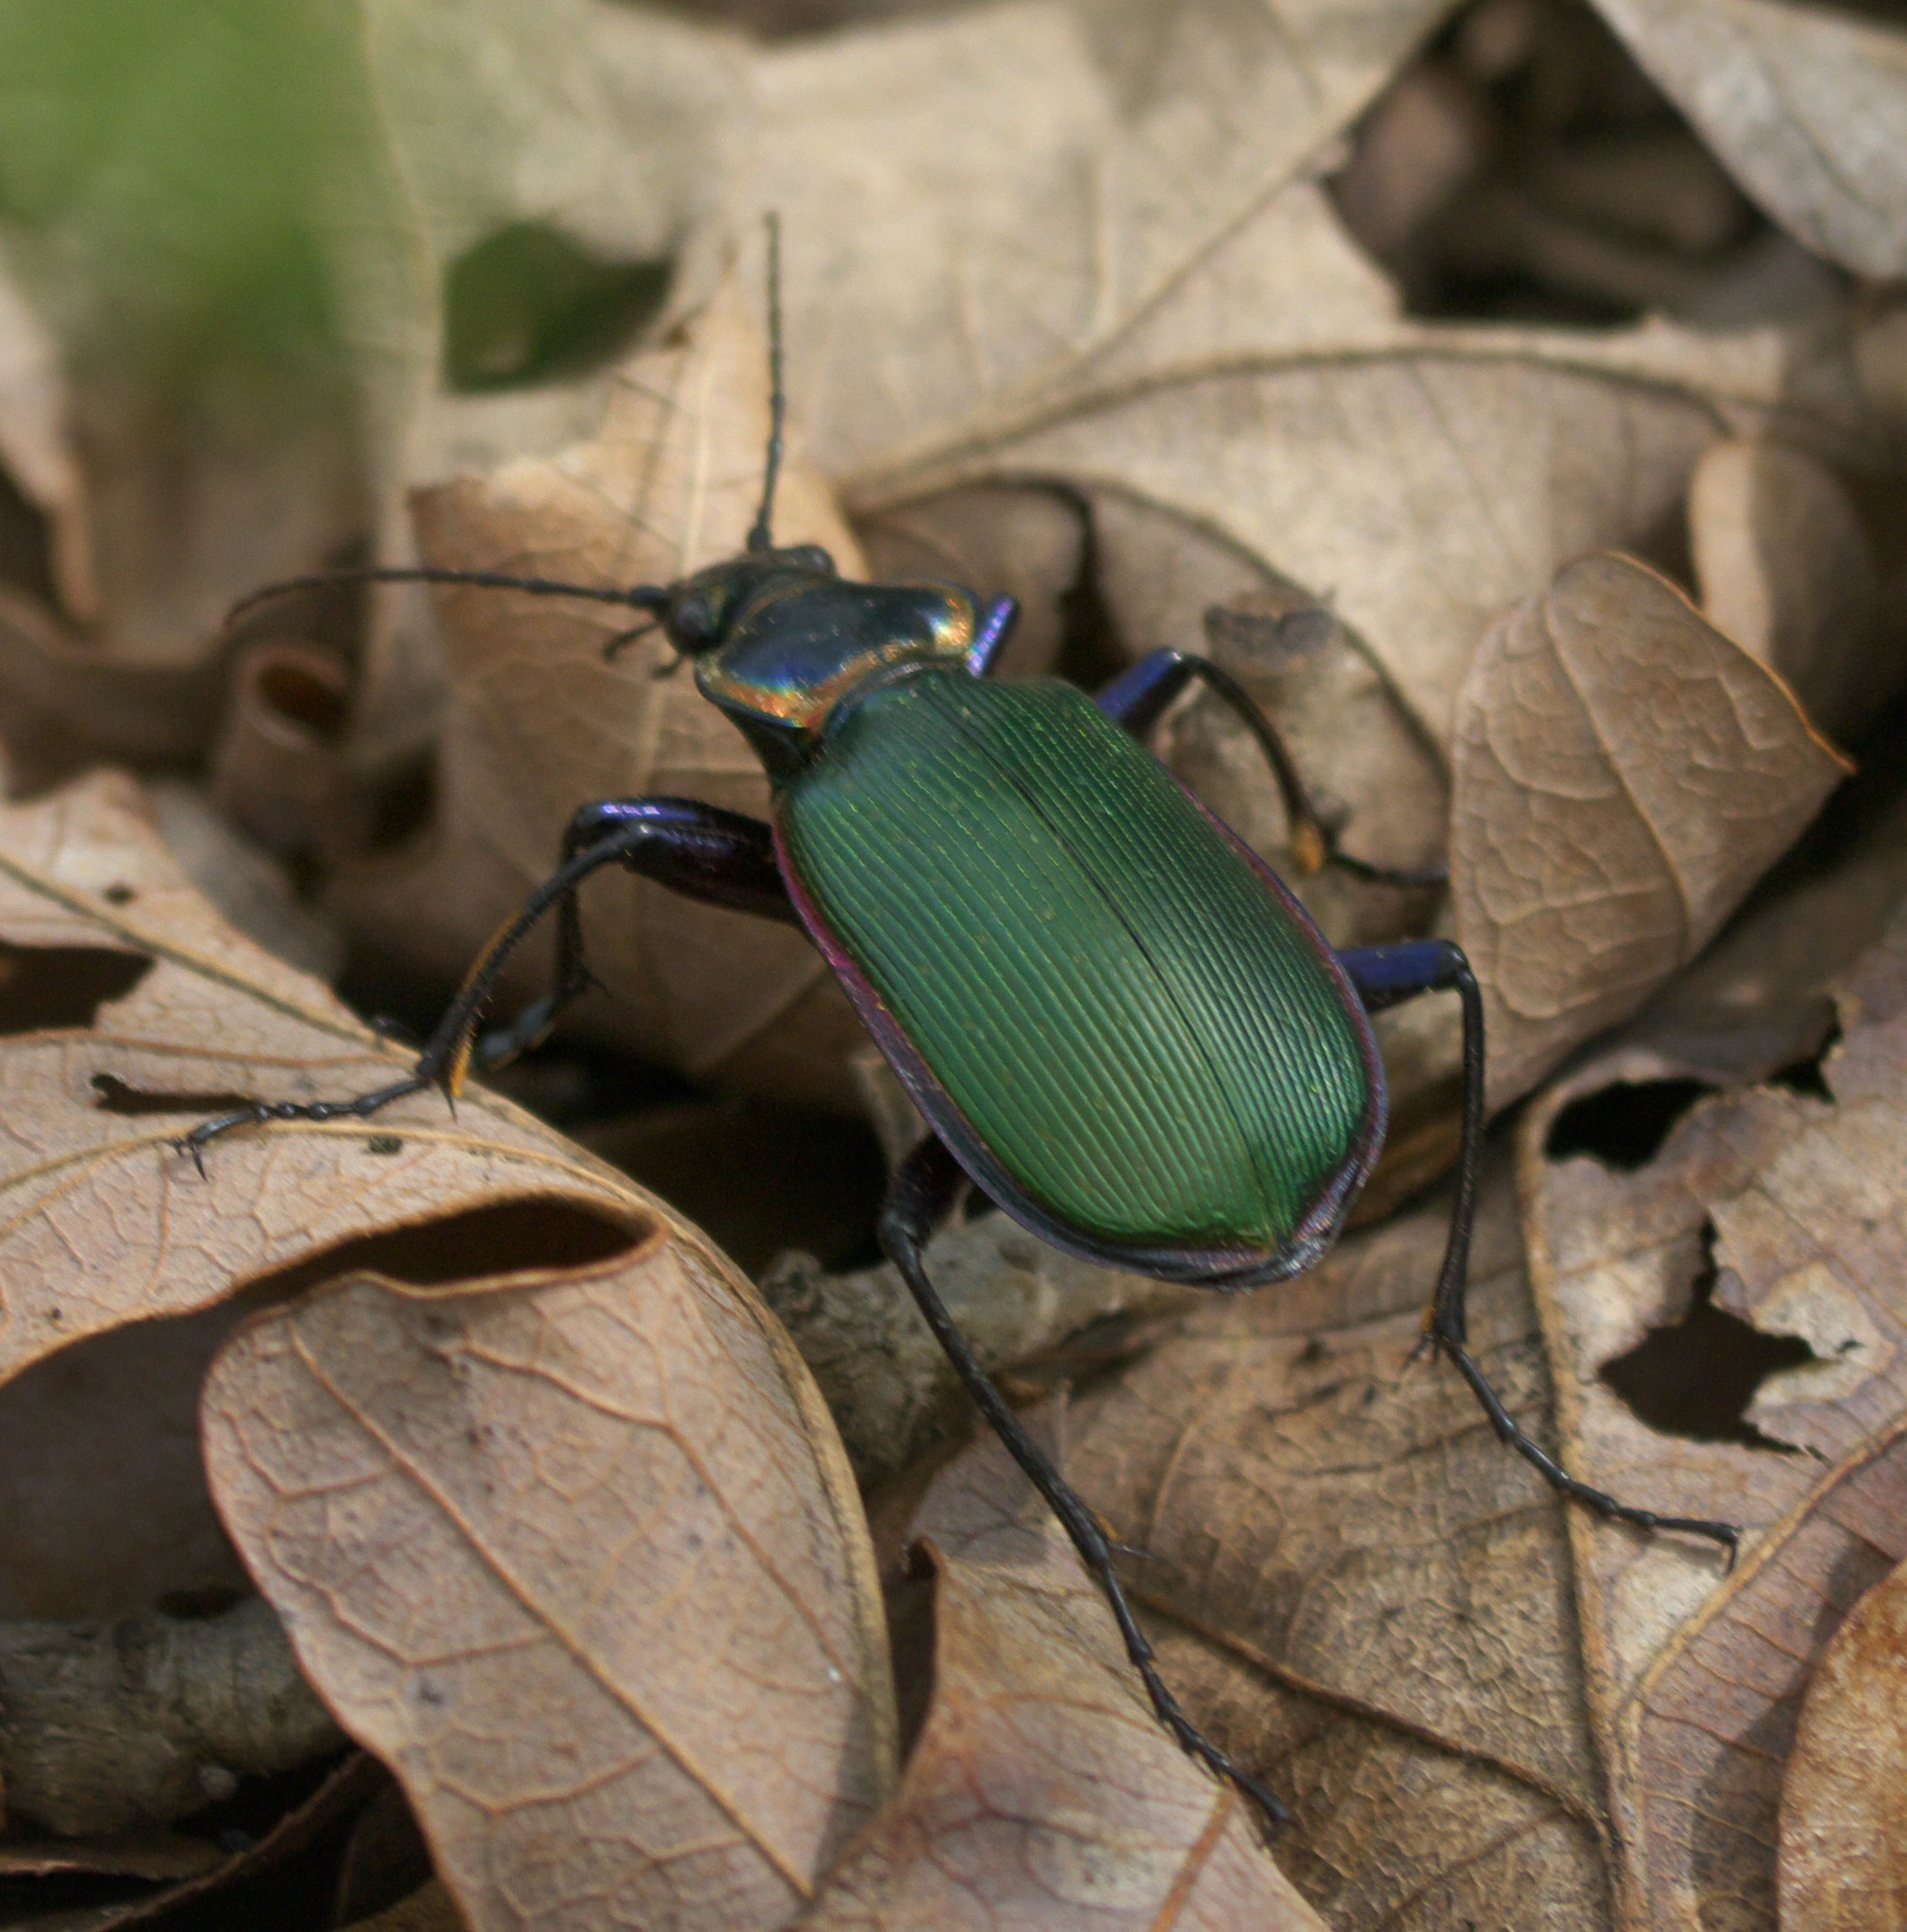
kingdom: Animalia
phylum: Arthropoda
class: Insecta
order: Coleoptera
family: Carabidae
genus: Calosoma
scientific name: Calosoma scrutator
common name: Fiery searcher beetle
